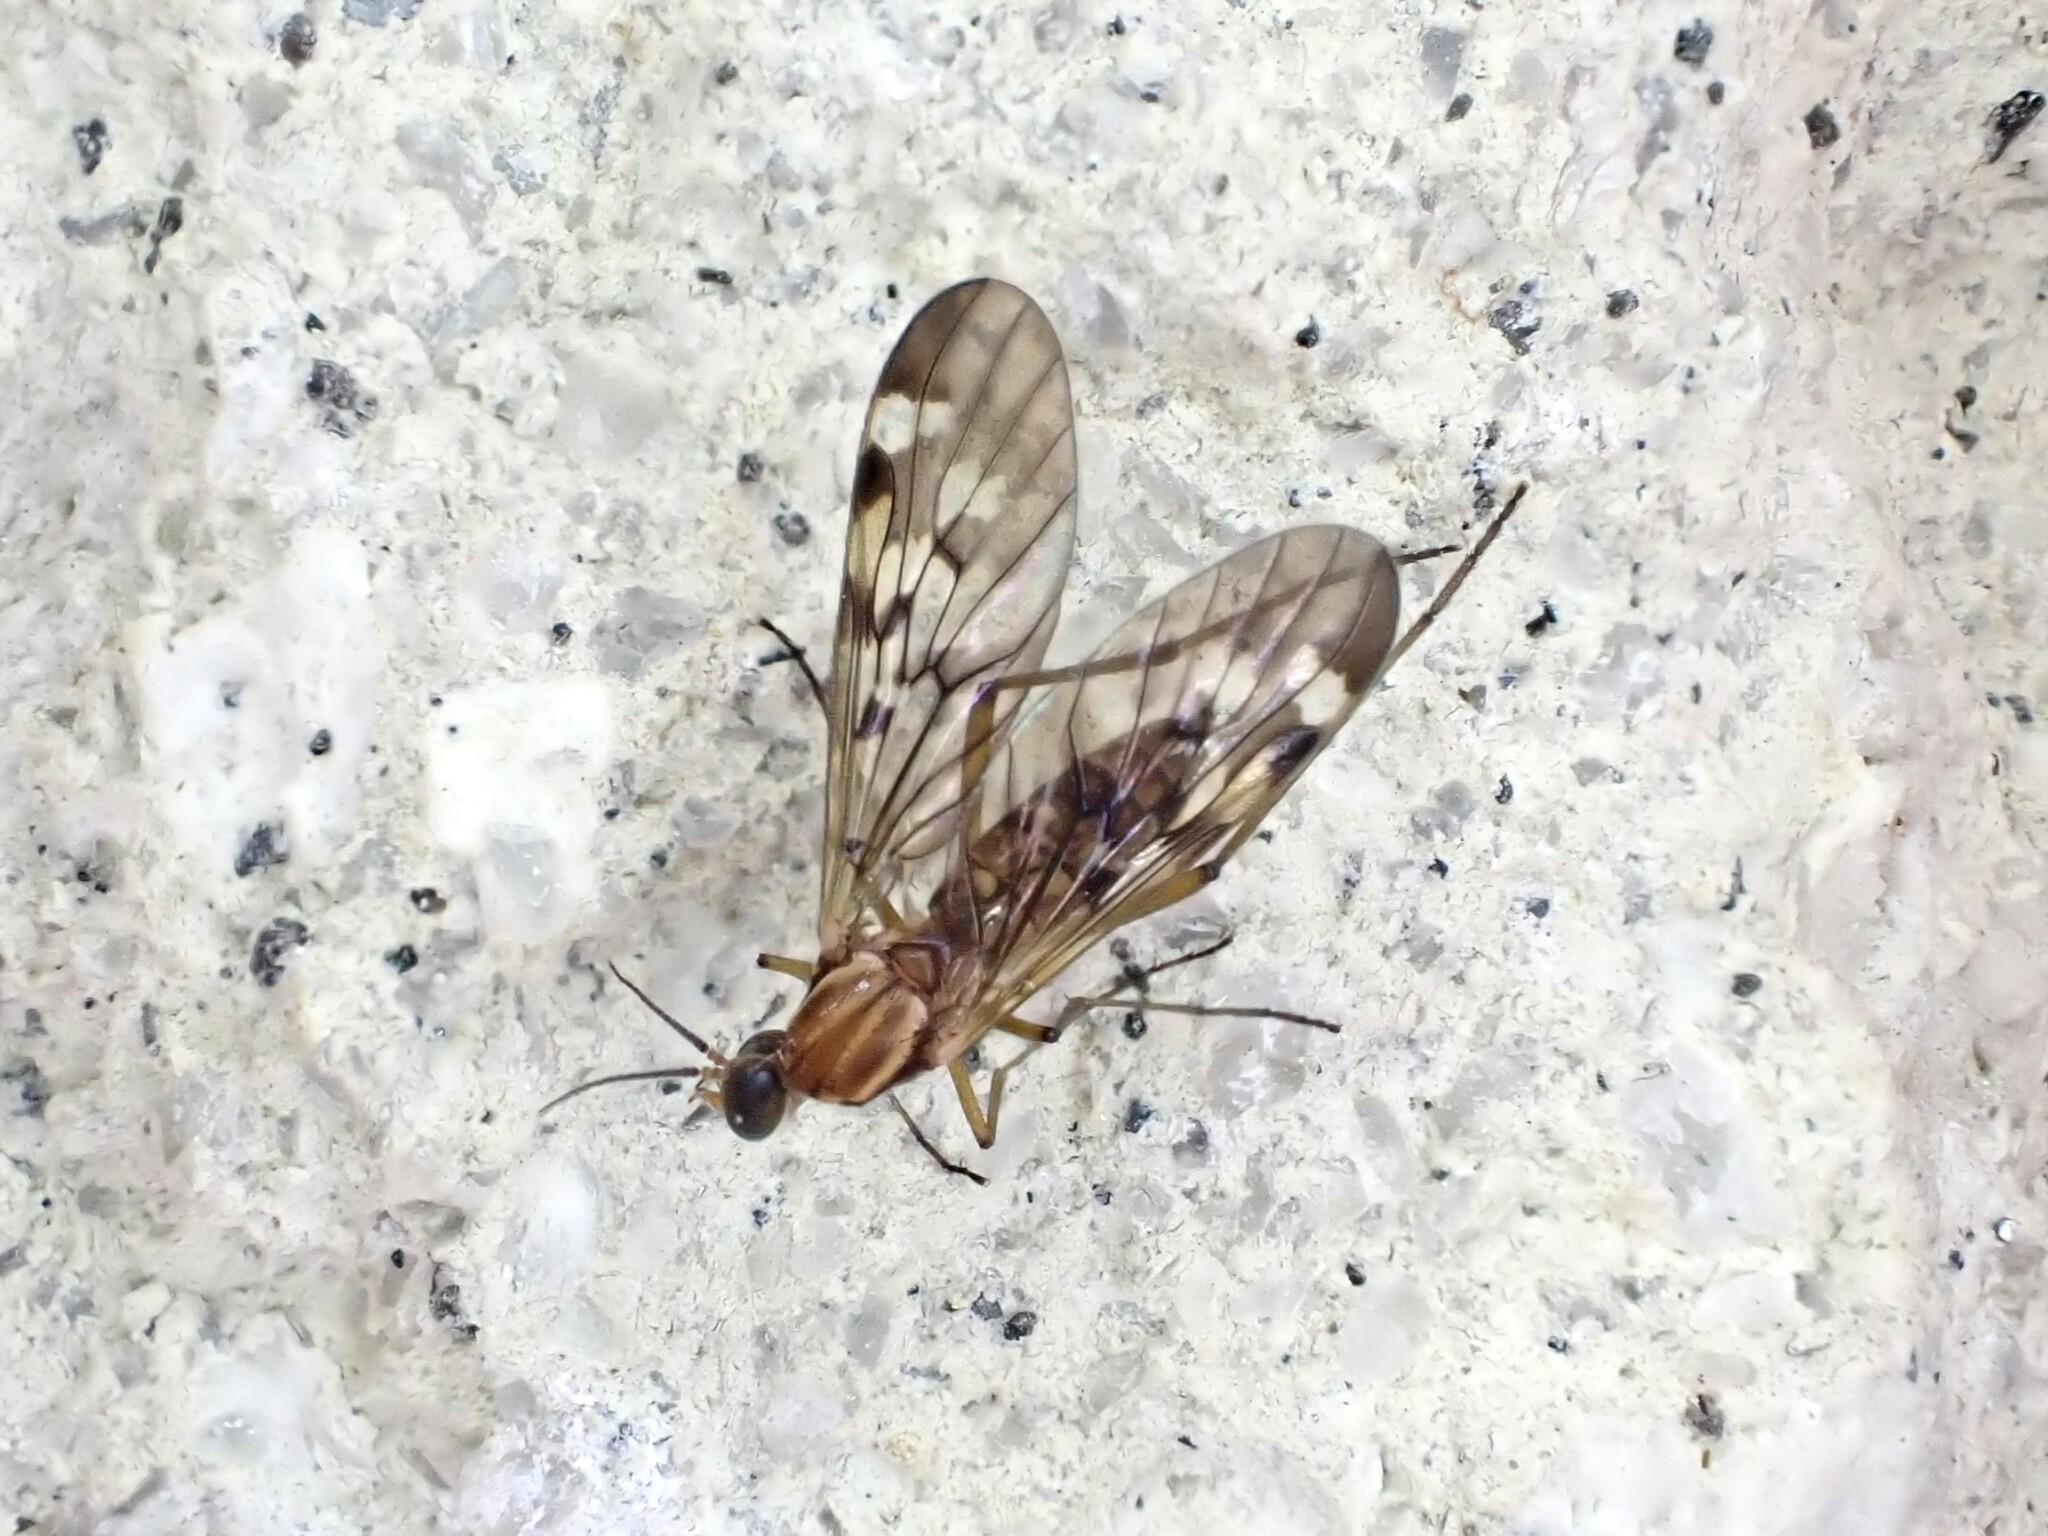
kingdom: Animalia
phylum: Arthropoda
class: Insecta
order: Diptera
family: Anisopodidae
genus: Sylvicola
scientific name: Sylvicola notatus
